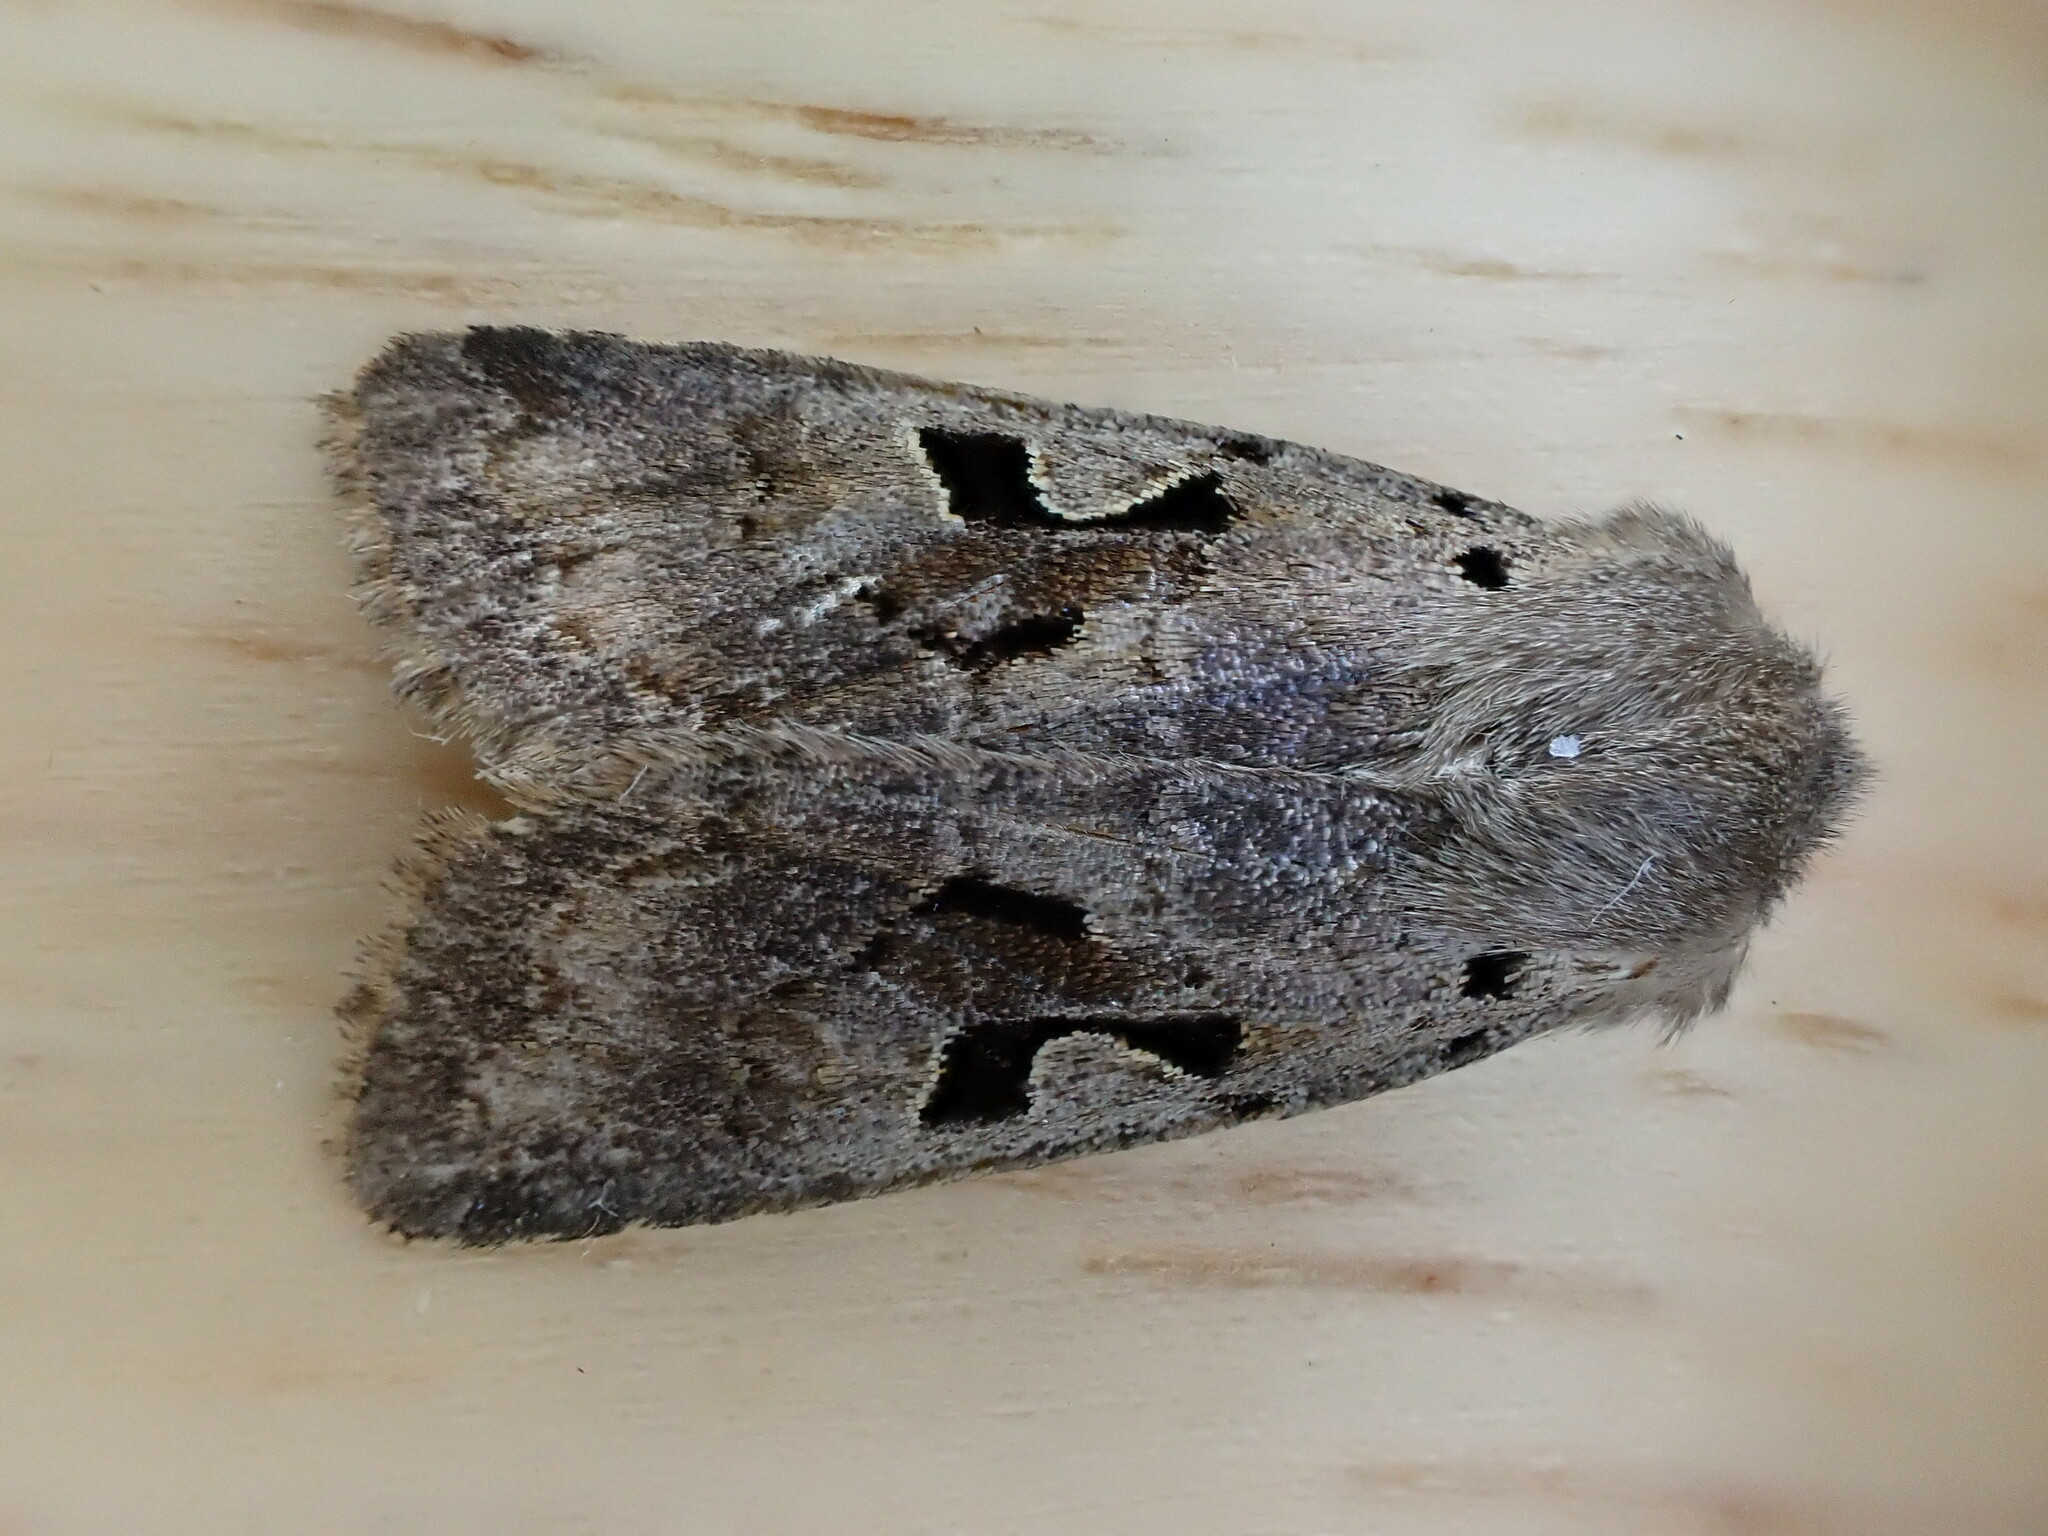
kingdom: Animalia
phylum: Arthropoda
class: Insecta
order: Lepidoptera
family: Noctuidae
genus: Orthosia
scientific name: Orthosia gothica
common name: Hebrew character
